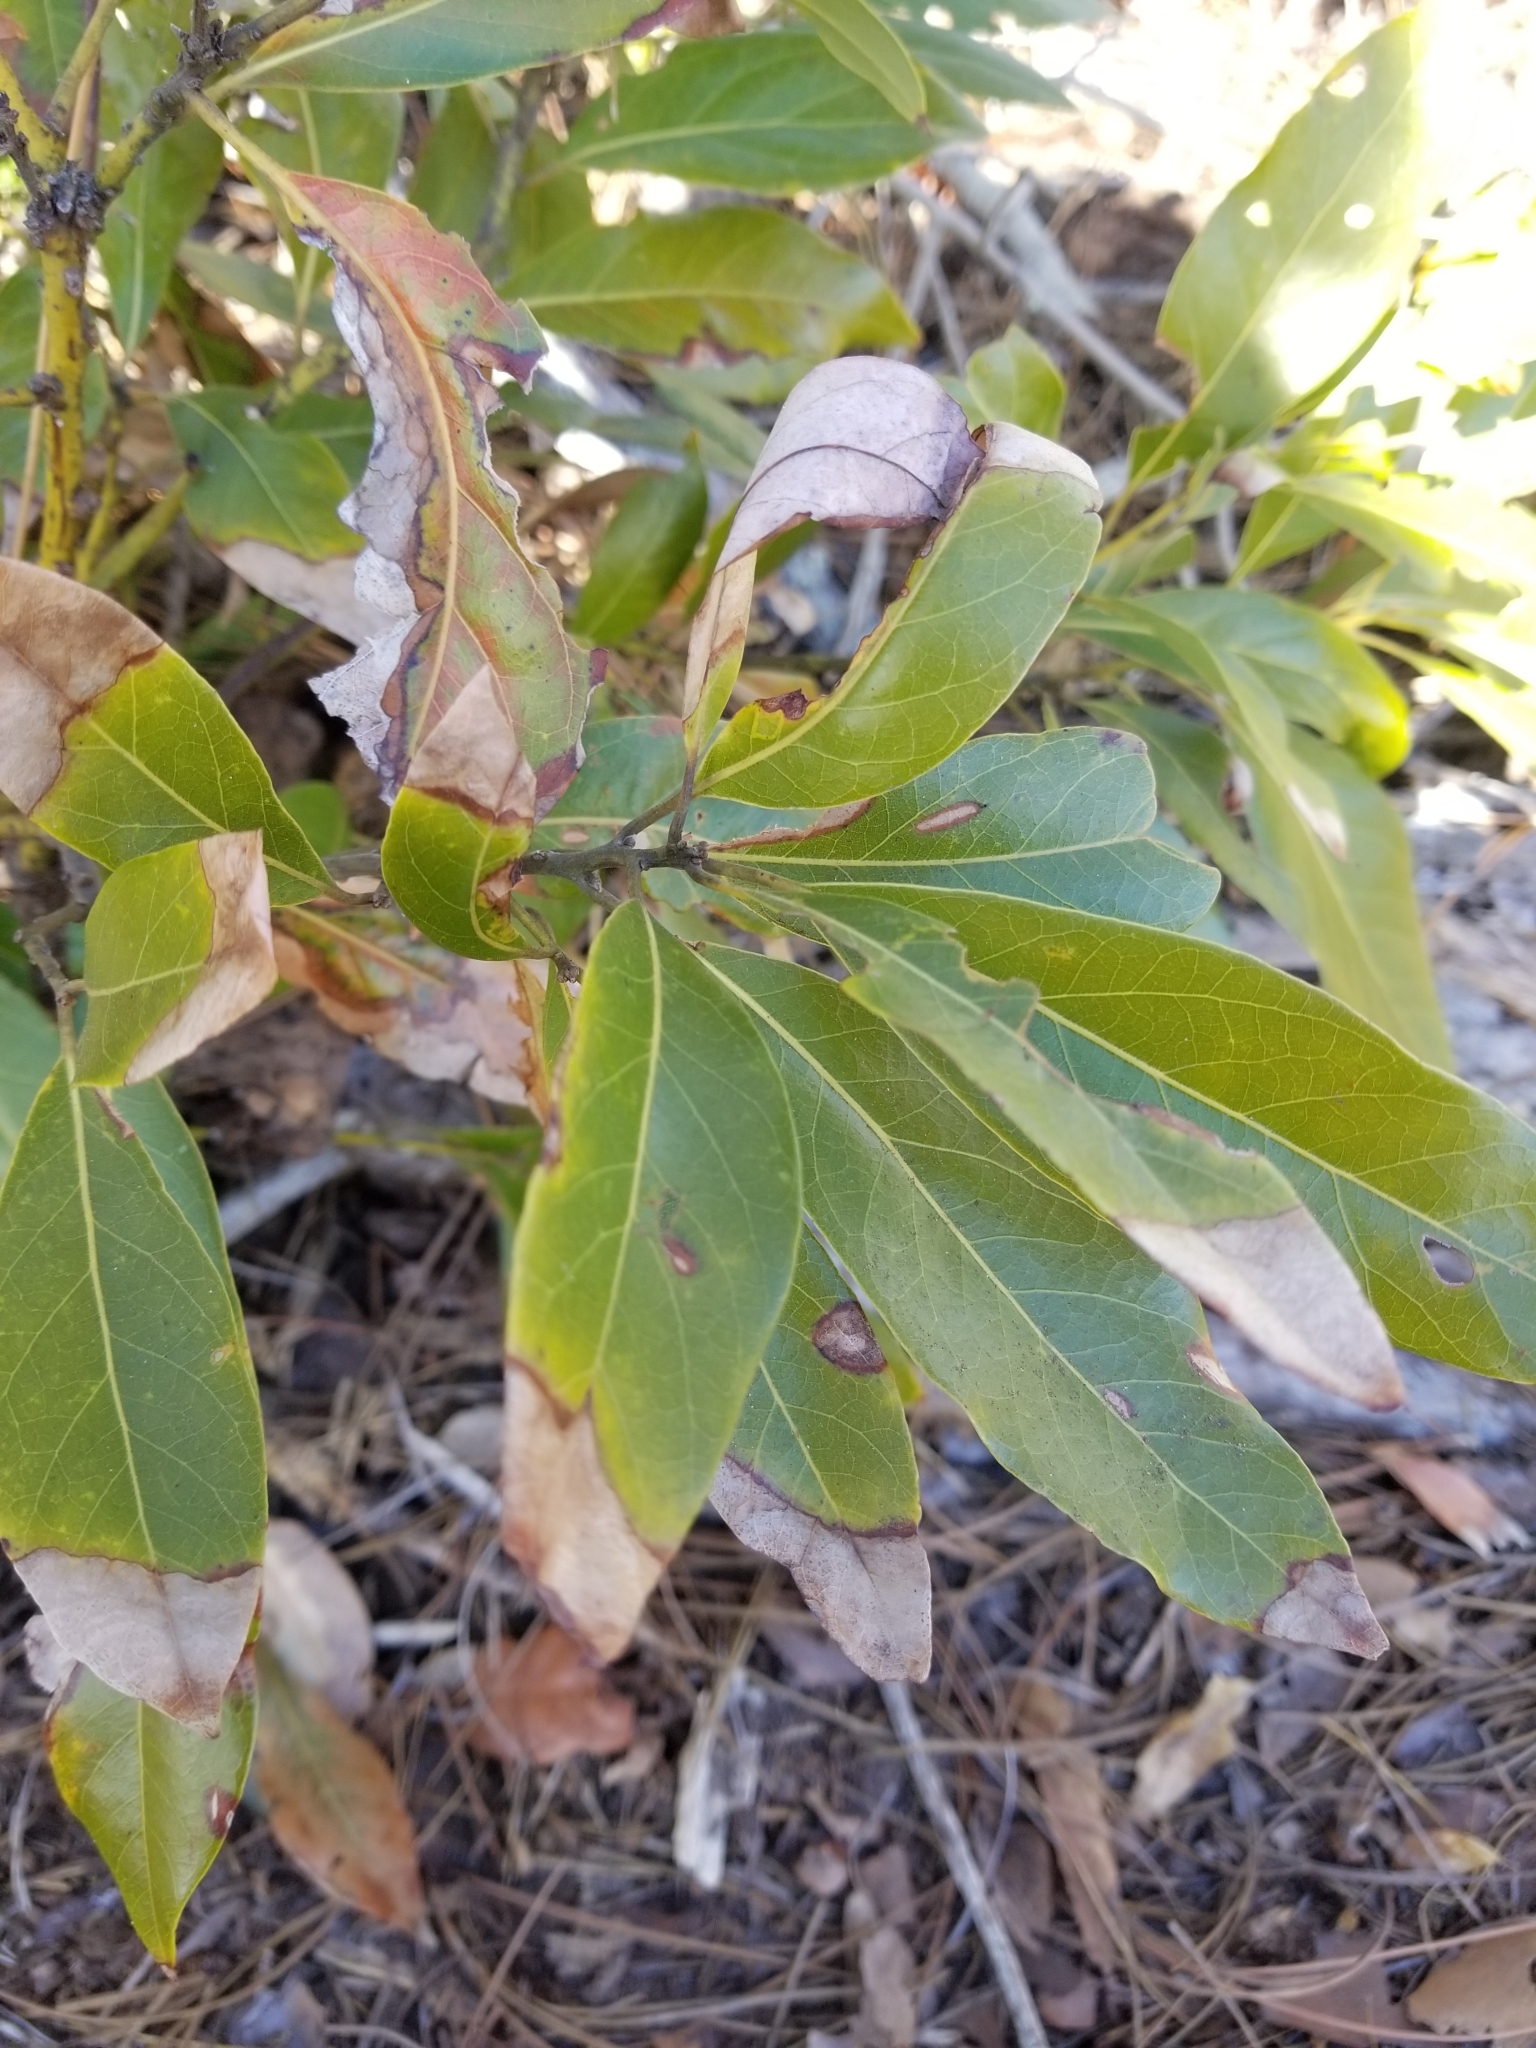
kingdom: Plantae
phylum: Tracheophyta
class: Magnoliopsida
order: Laurales
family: Lauraceae
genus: Persea
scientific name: Persea borbonia
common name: Redbay
